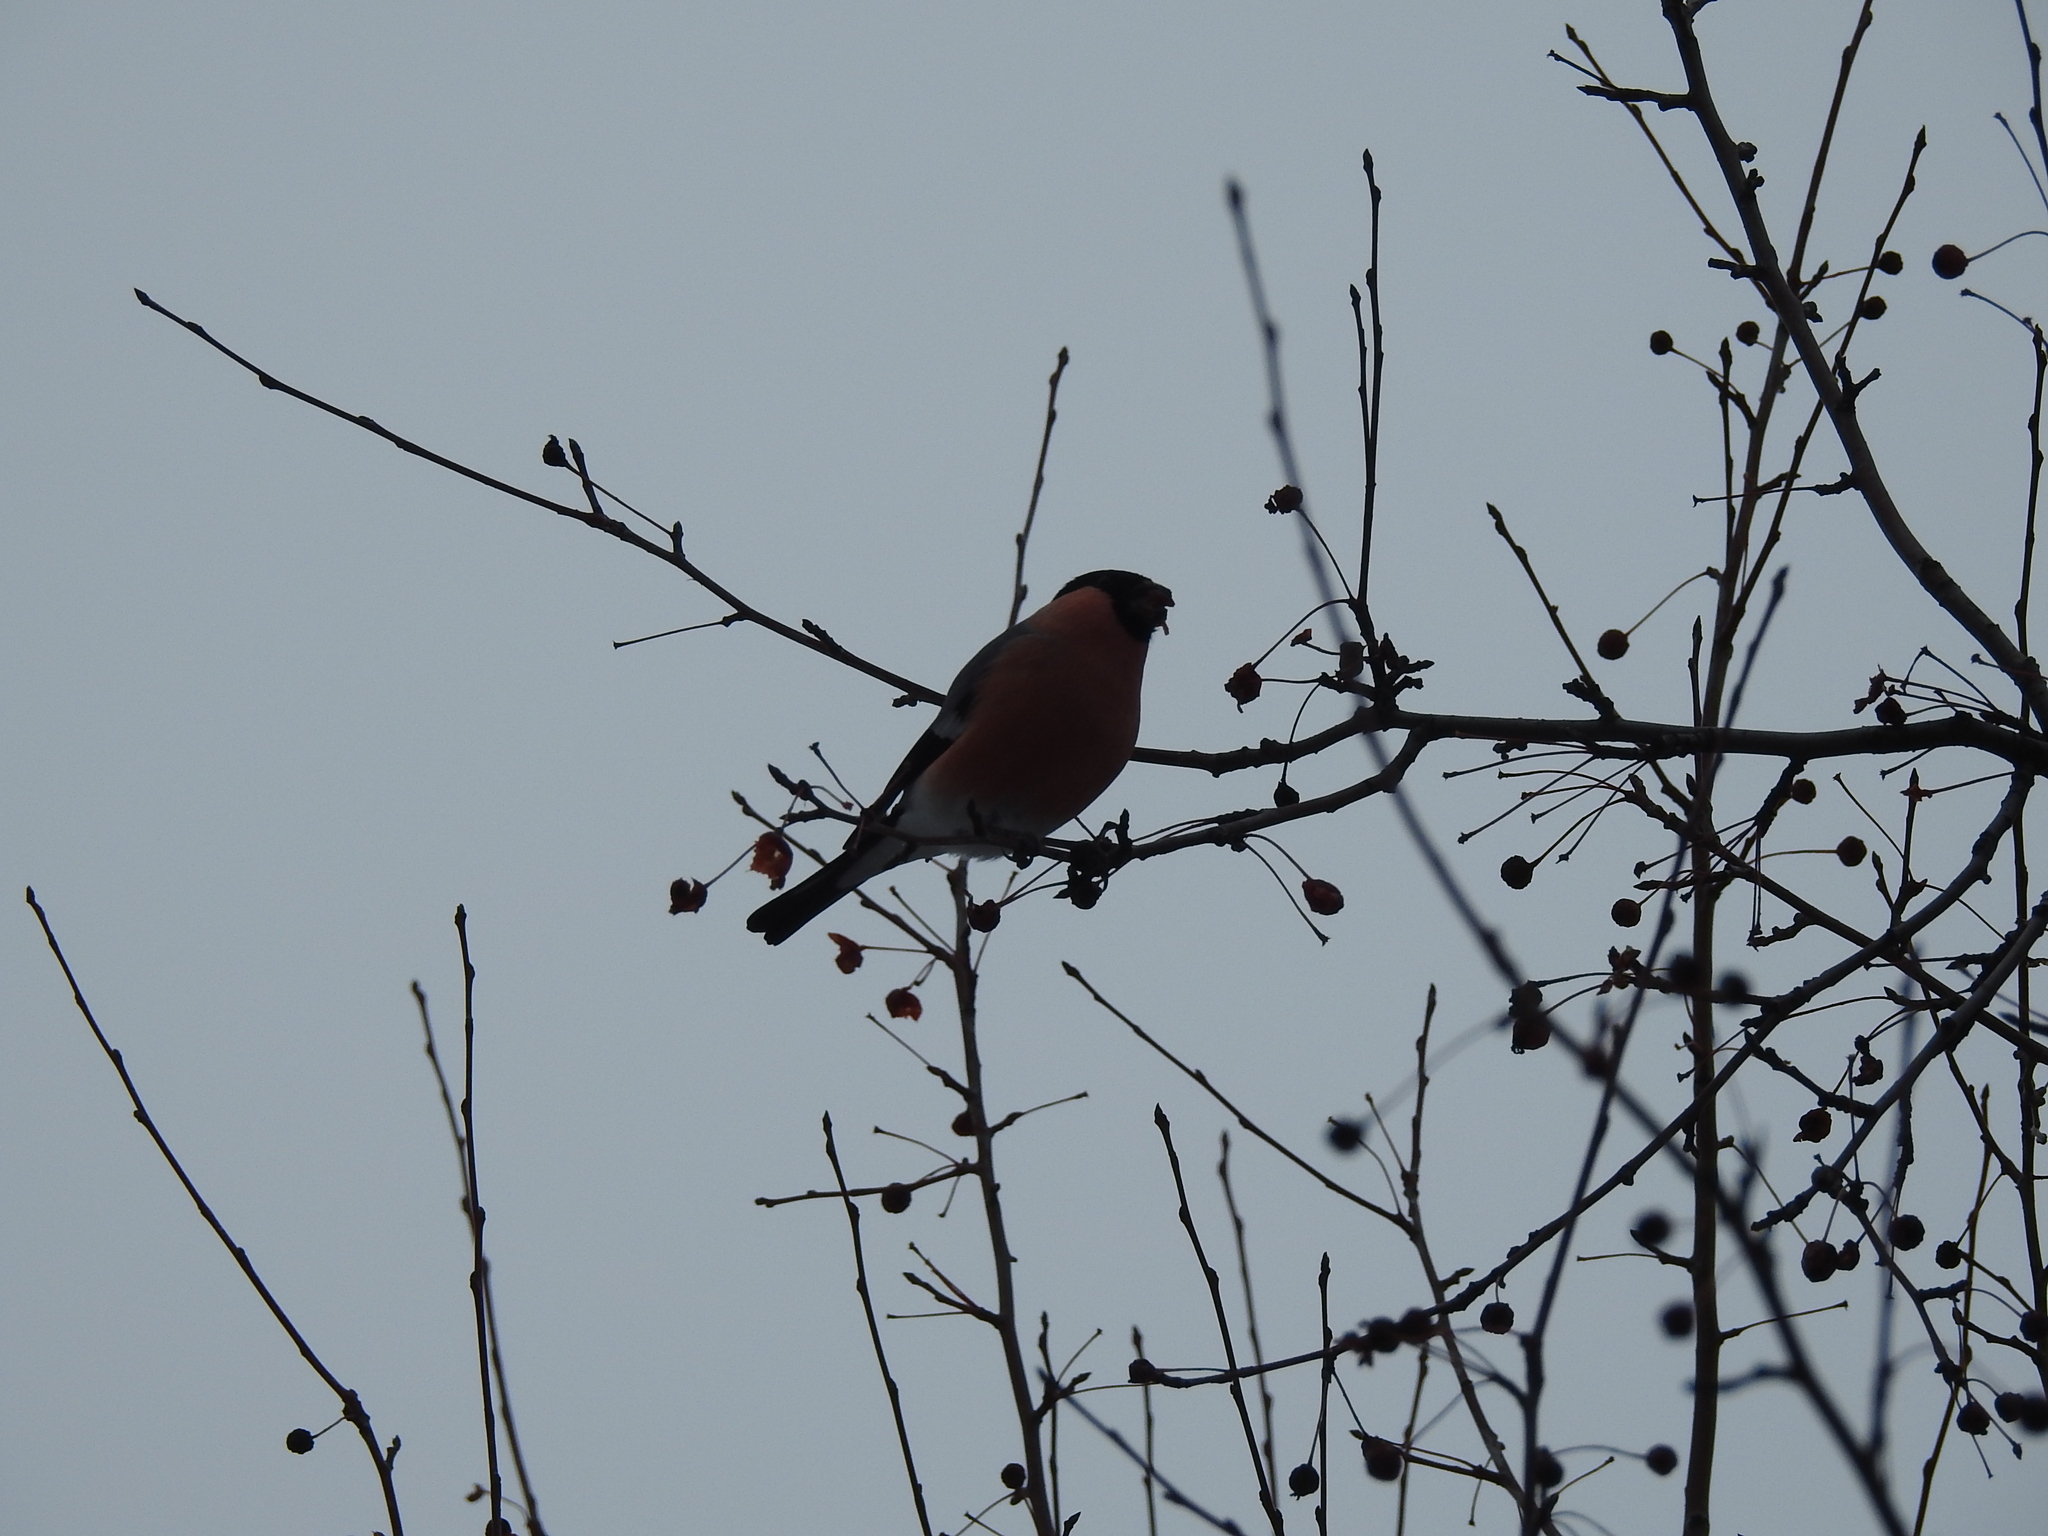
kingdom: Animalia
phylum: Chordata
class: Aves
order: Passeriformes
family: Fringillidae
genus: Pyrrhula
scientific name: Pyrrhula pyrrhula
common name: Eurasian bullfinch
